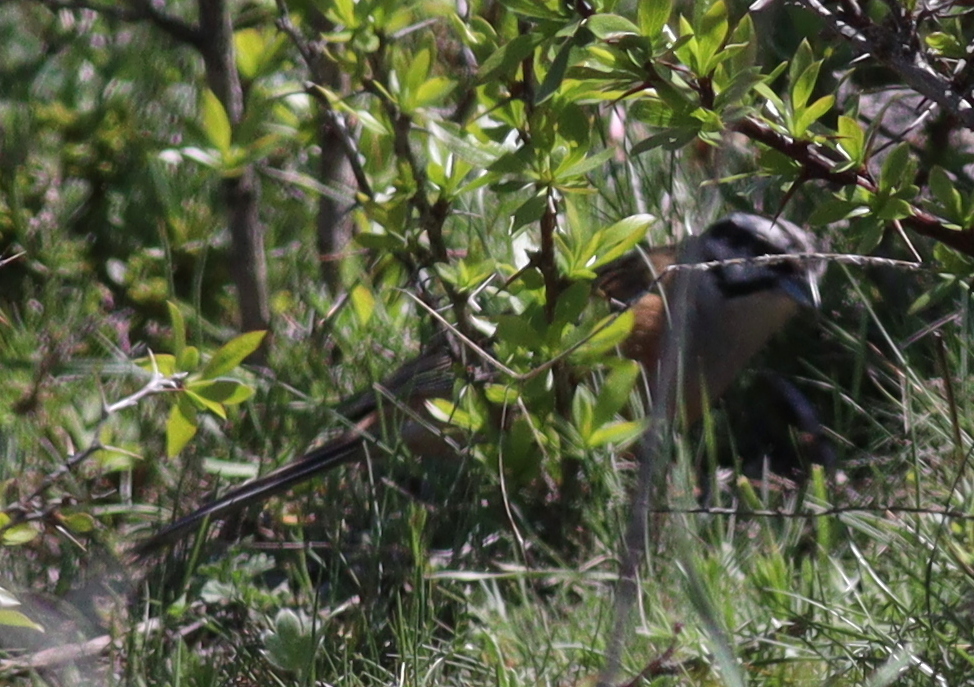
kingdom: Animalia
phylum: Chordata
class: Aves
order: Passeriformes
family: Emberizidae
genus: Emberiza
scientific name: Emberiza cia
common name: Rock bunting
